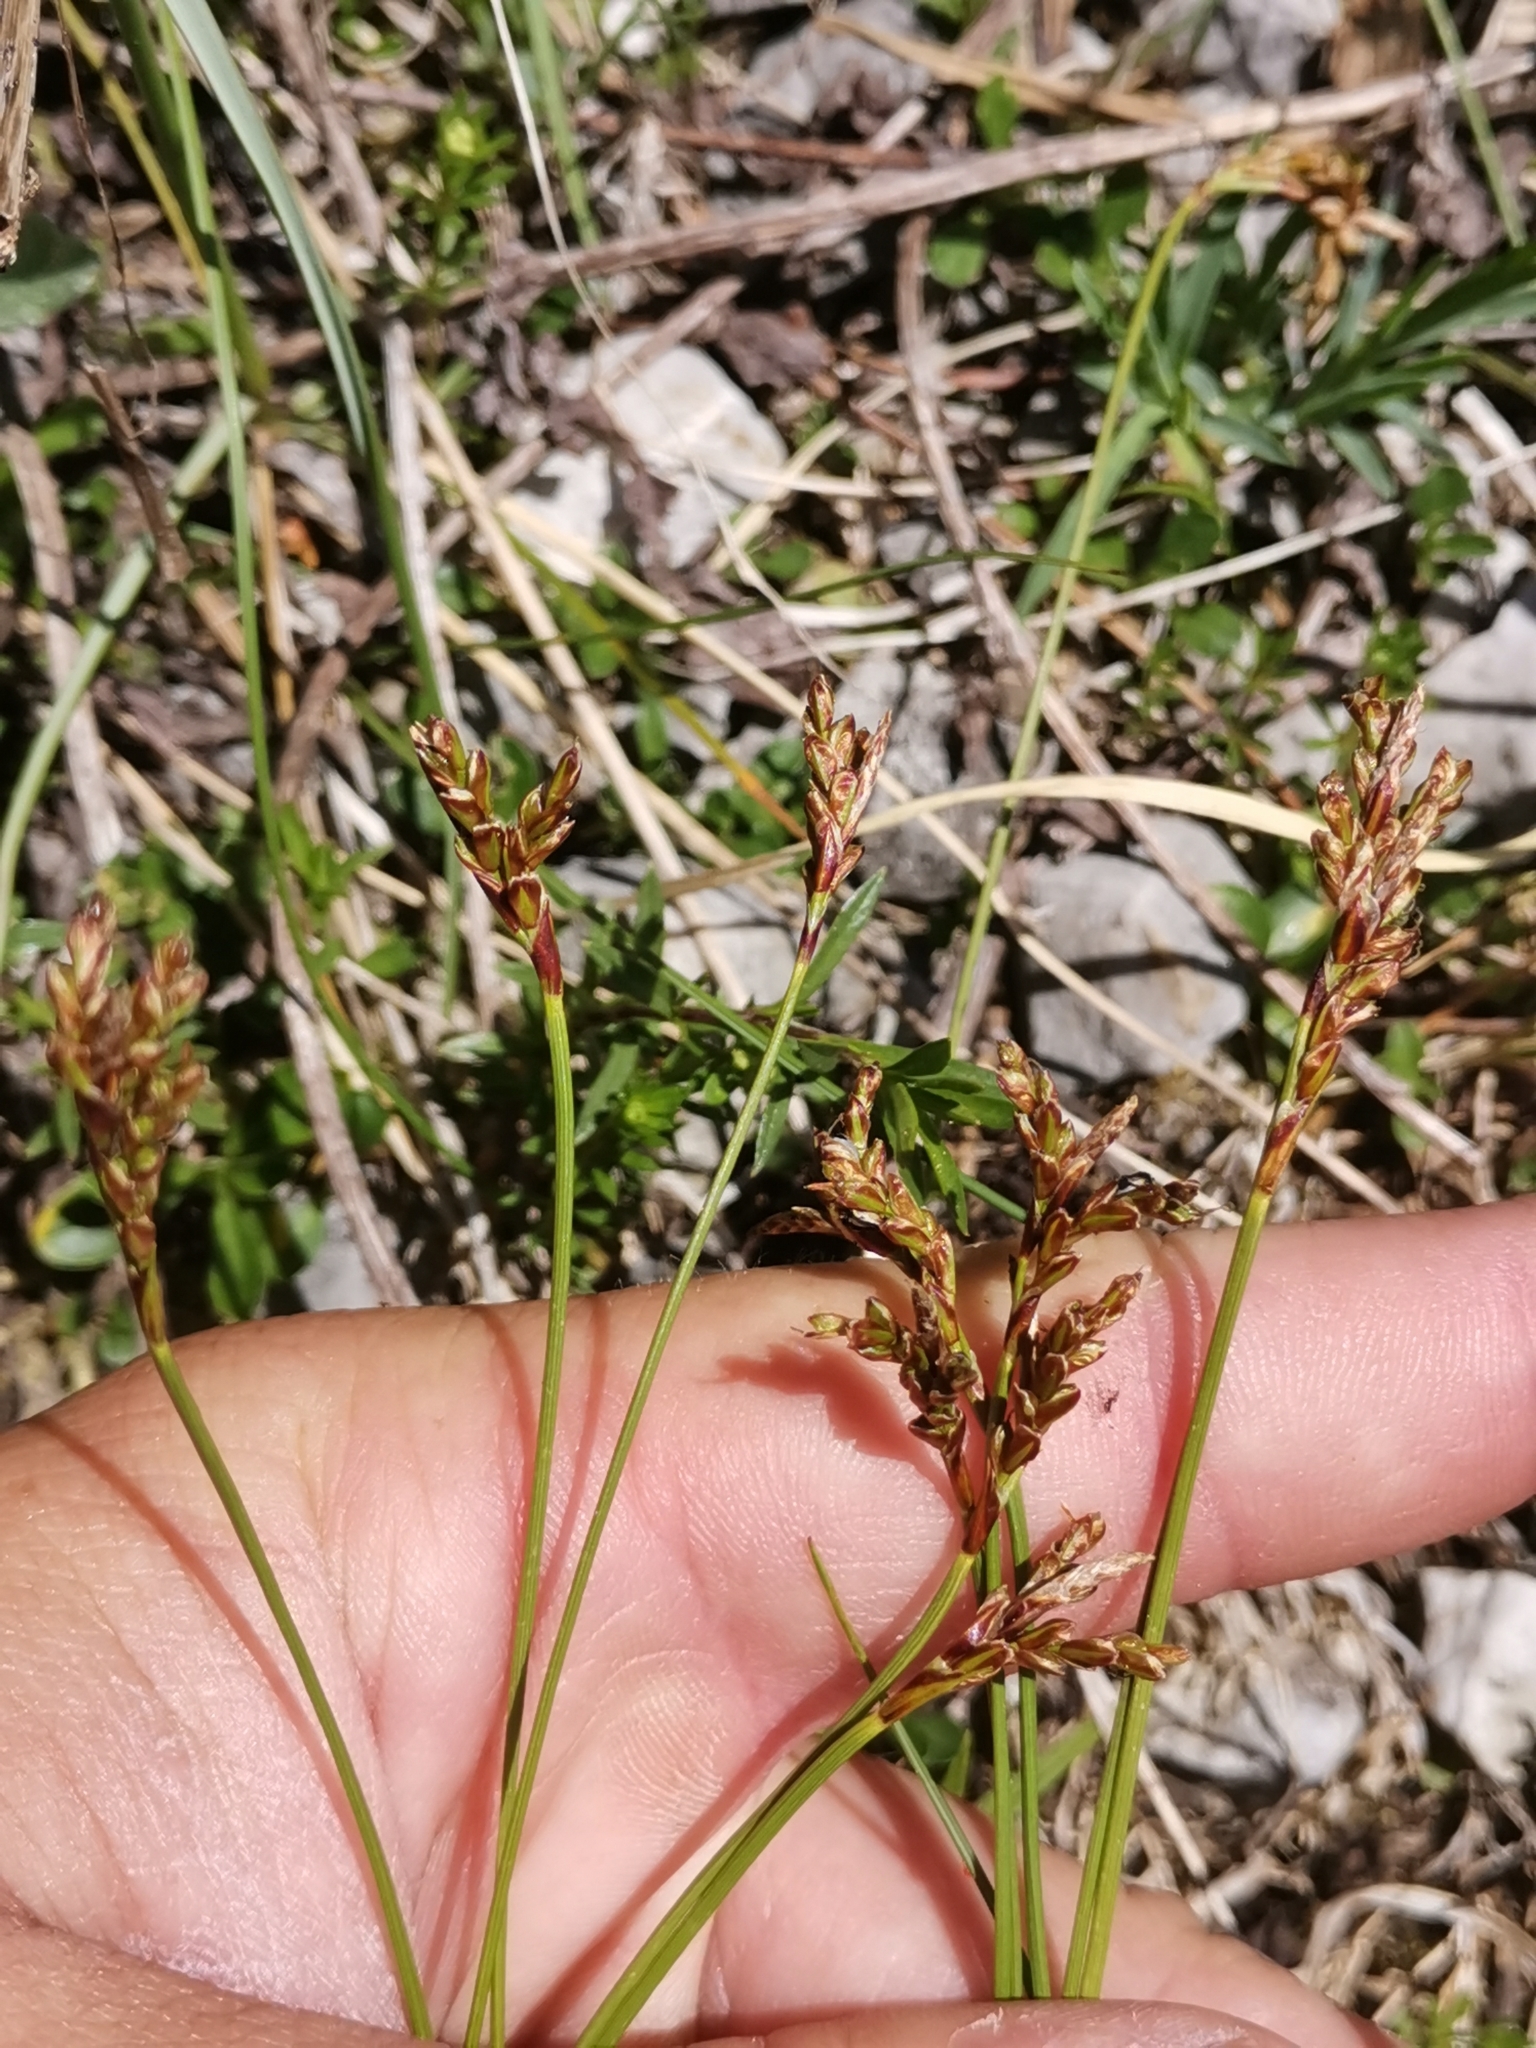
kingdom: Plantae
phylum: Tracheophyta
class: Liliopsida
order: Poales
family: Cyperaceae
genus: Carex
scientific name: Carex ornithopoda
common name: Bird's-foot sedge
